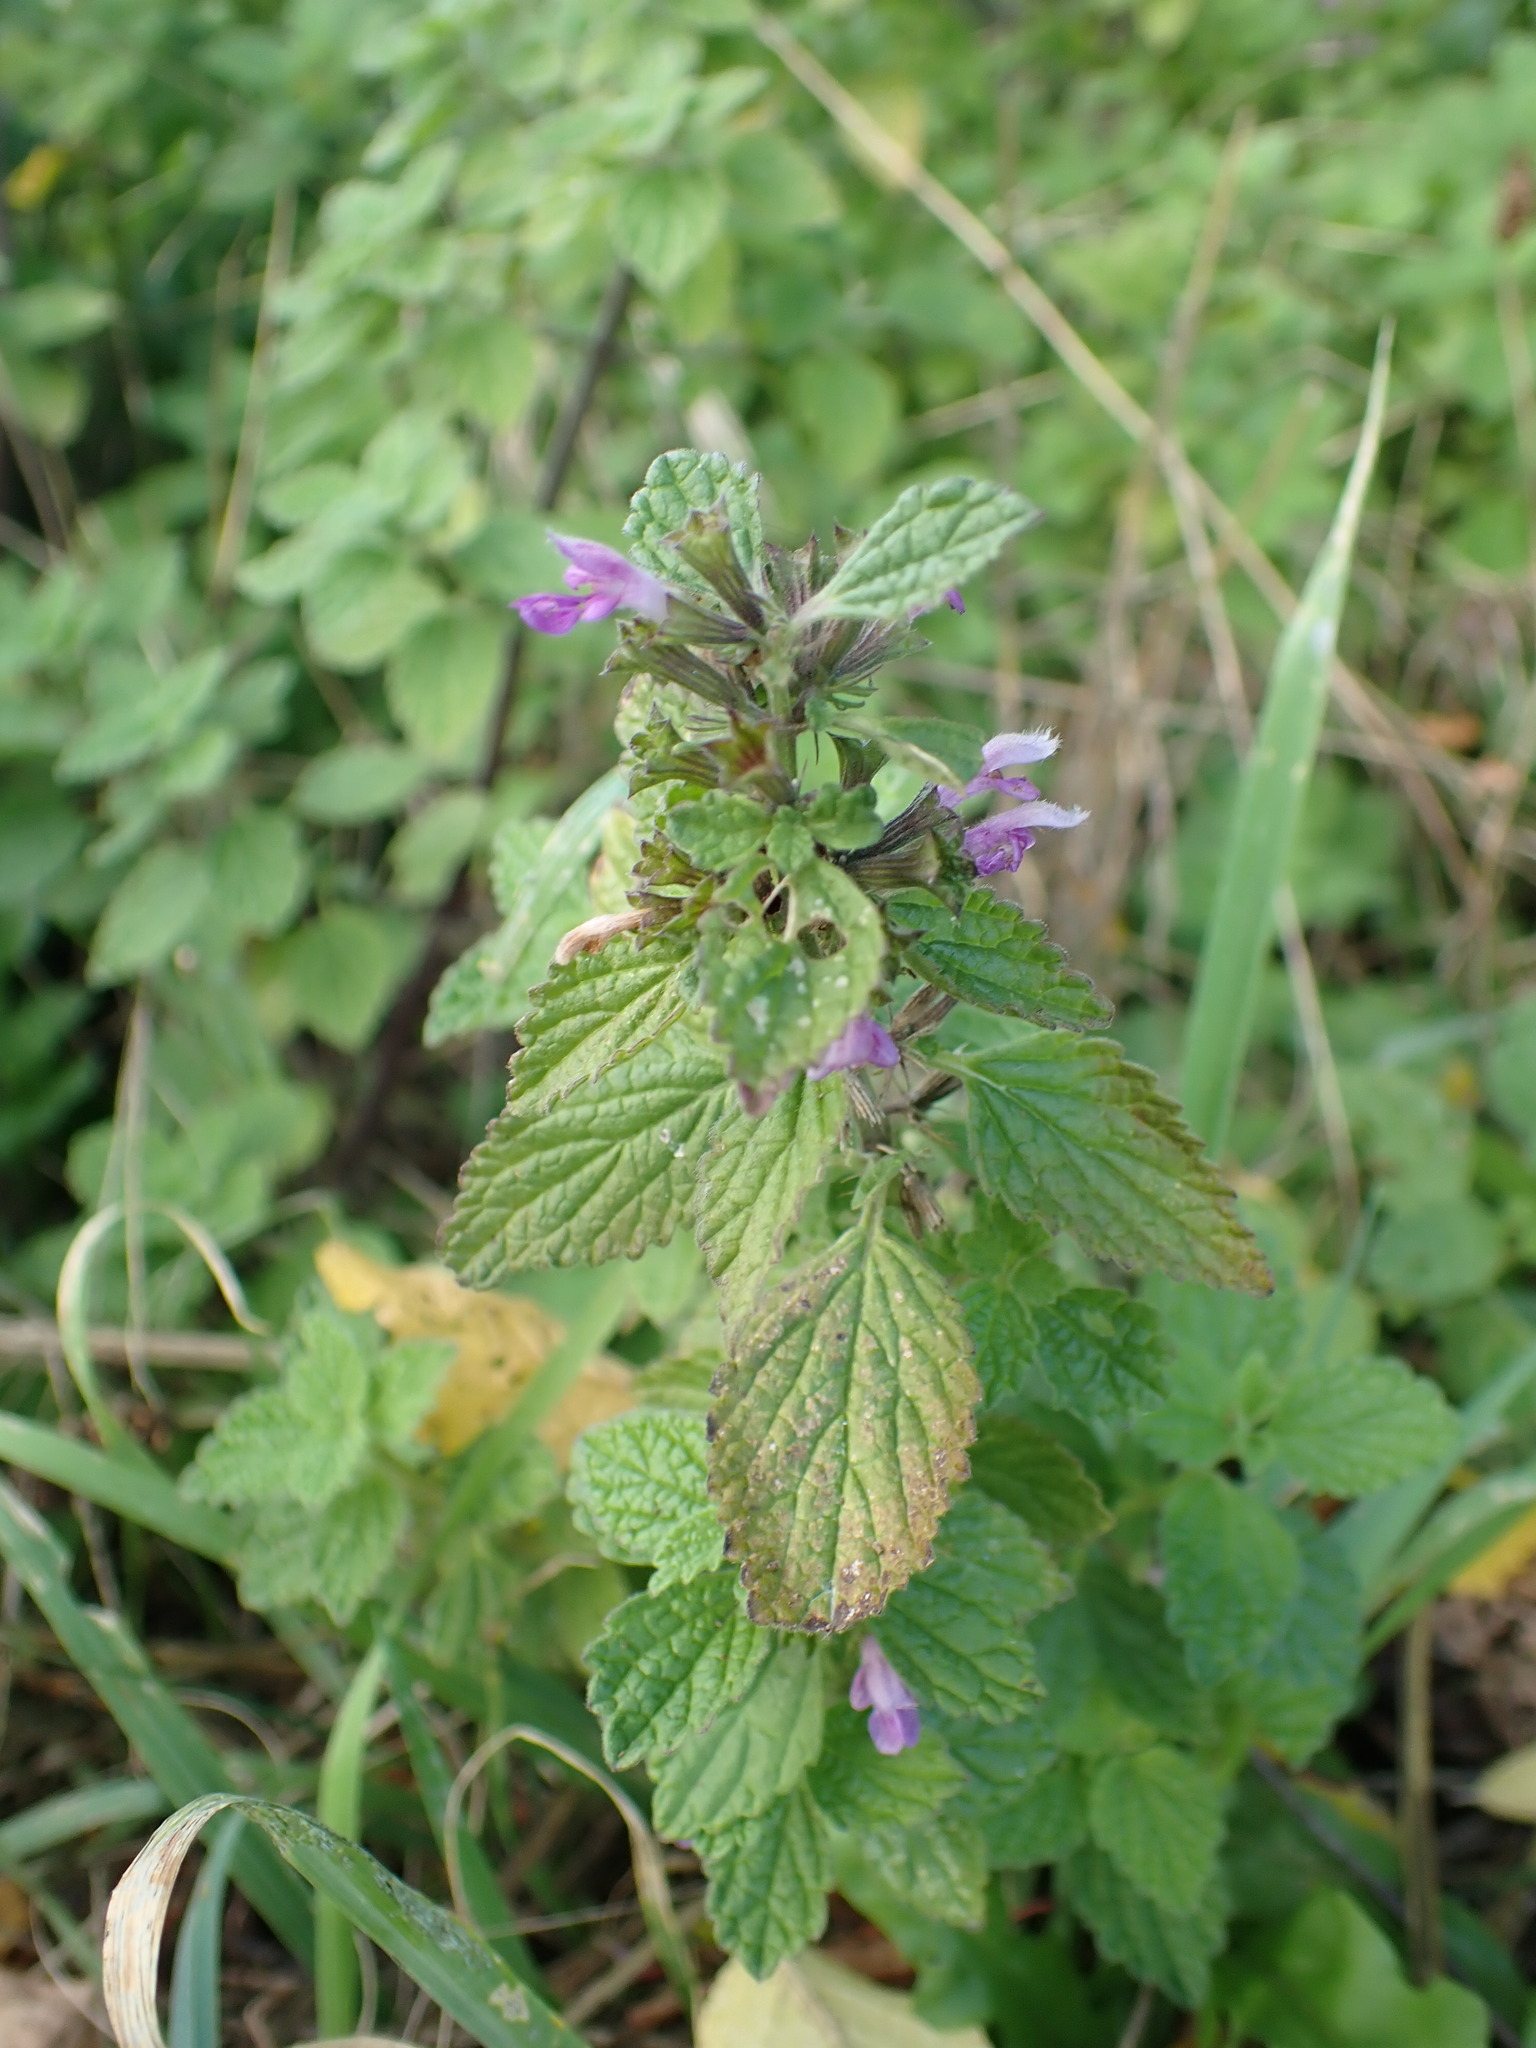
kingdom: Plantae
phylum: Tracheophyta
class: Magnoliopsida
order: Lamiales
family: Lamiaceae
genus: Ballota
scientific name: Ballota nigra
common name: Black horehound
